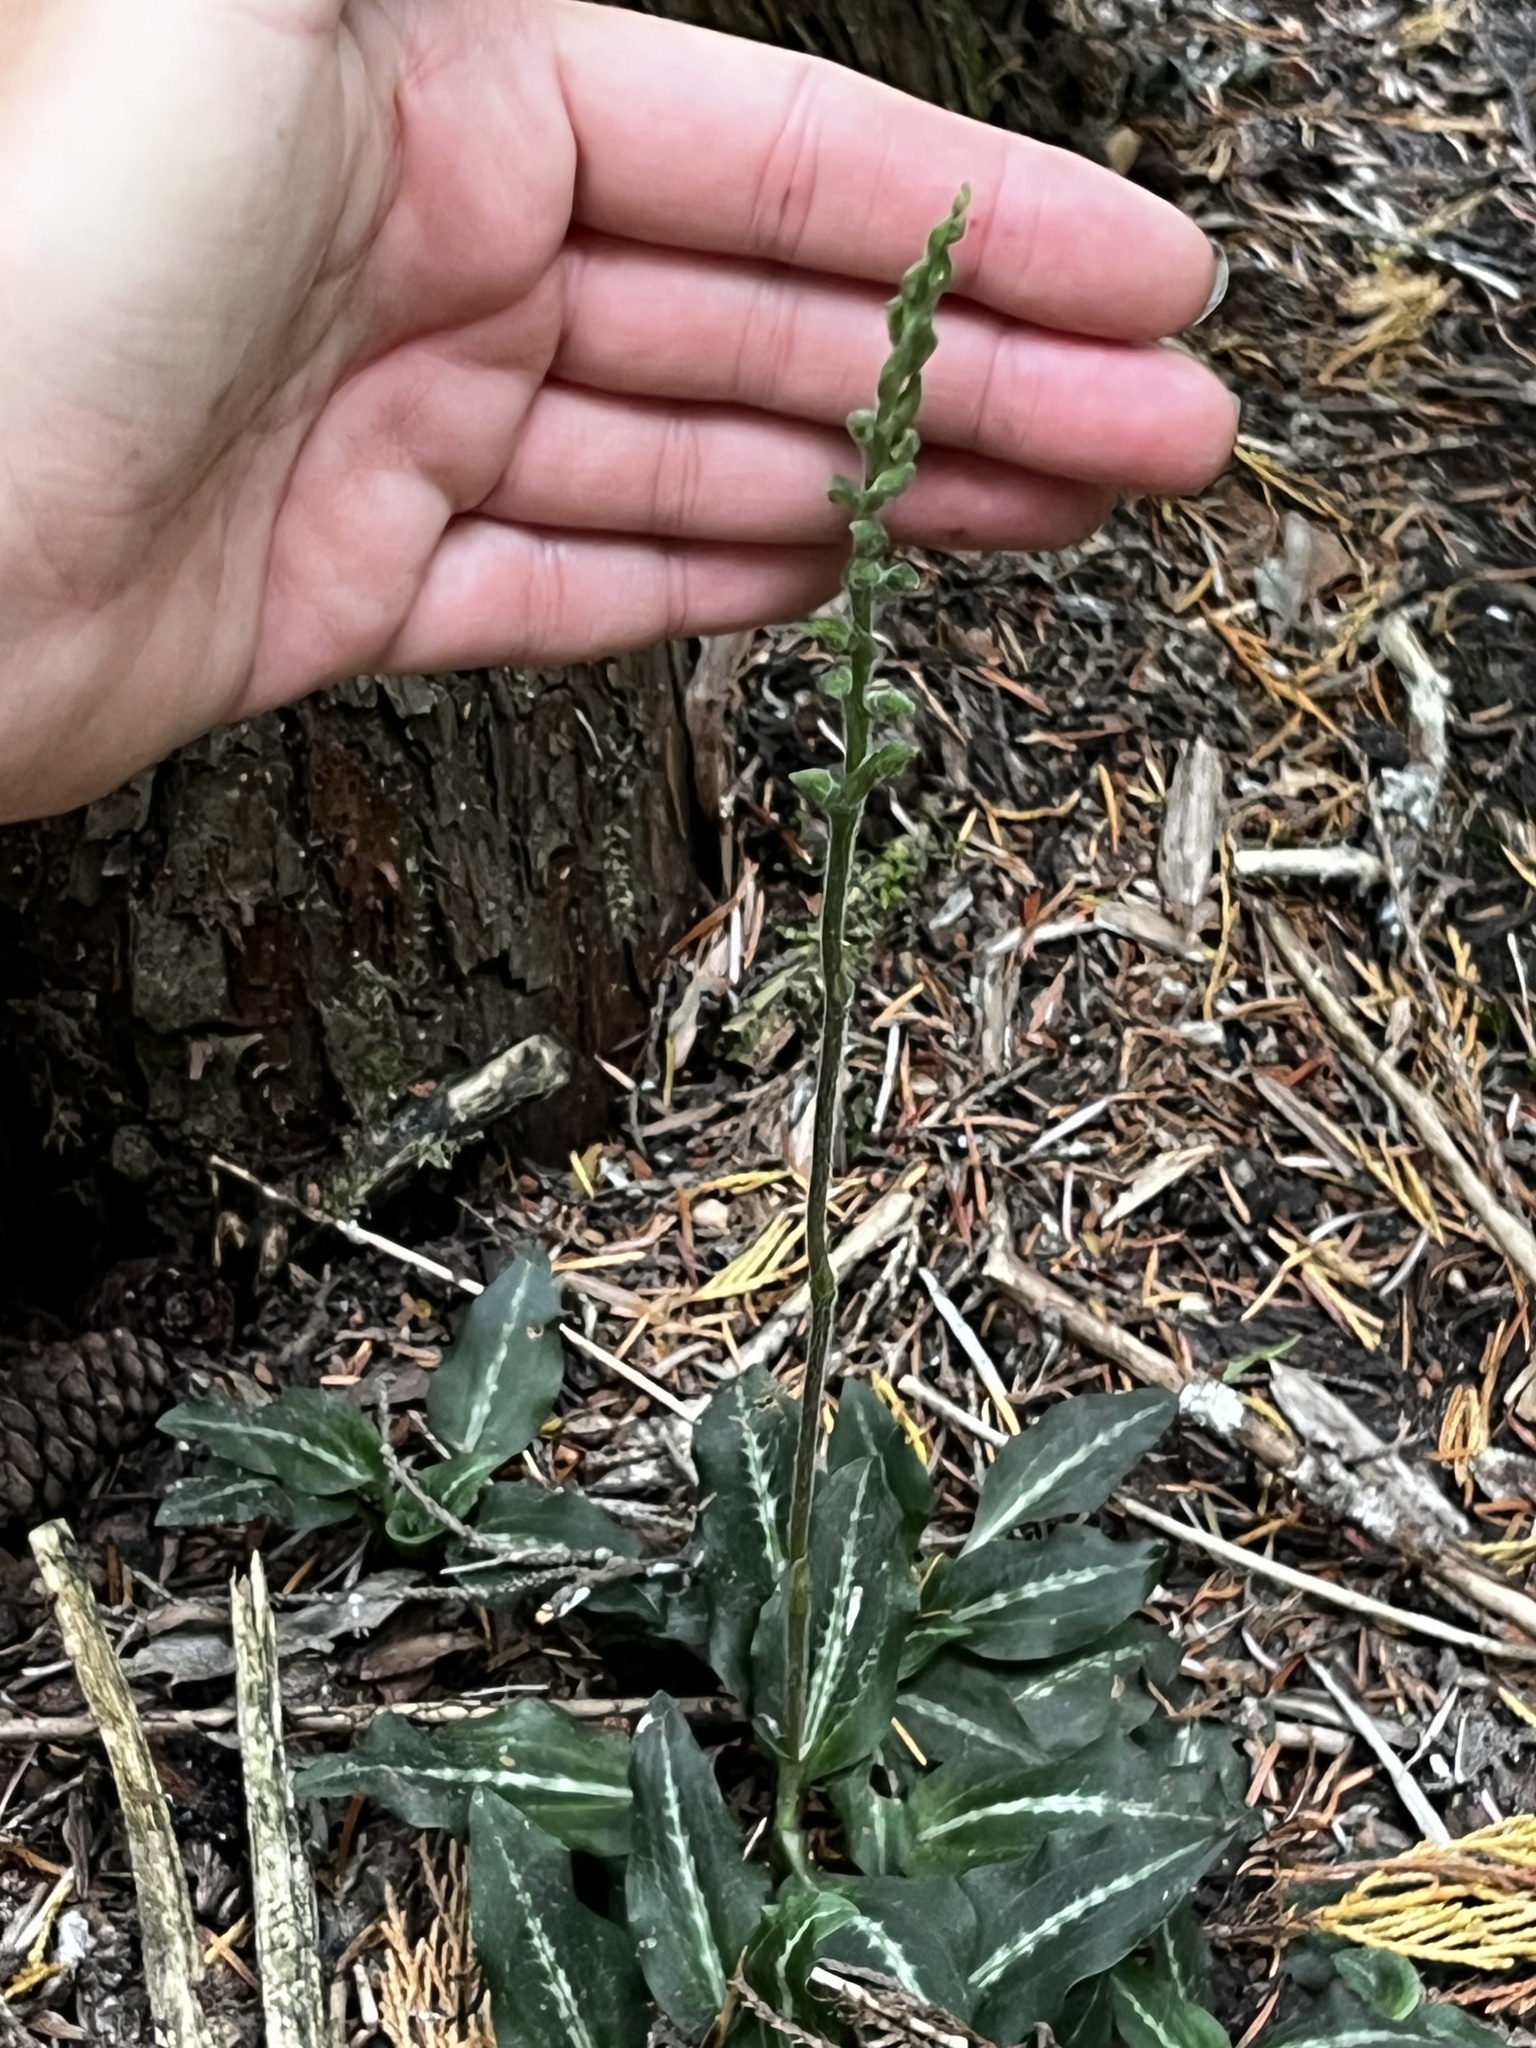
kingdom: Plantae
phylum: Tracheophyta
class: Liliopsida
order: Asparagales
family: Orchidaceae
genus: Goodyera
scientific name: Goodyera oblongifolia
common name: Giant rattlesnake-plantain
